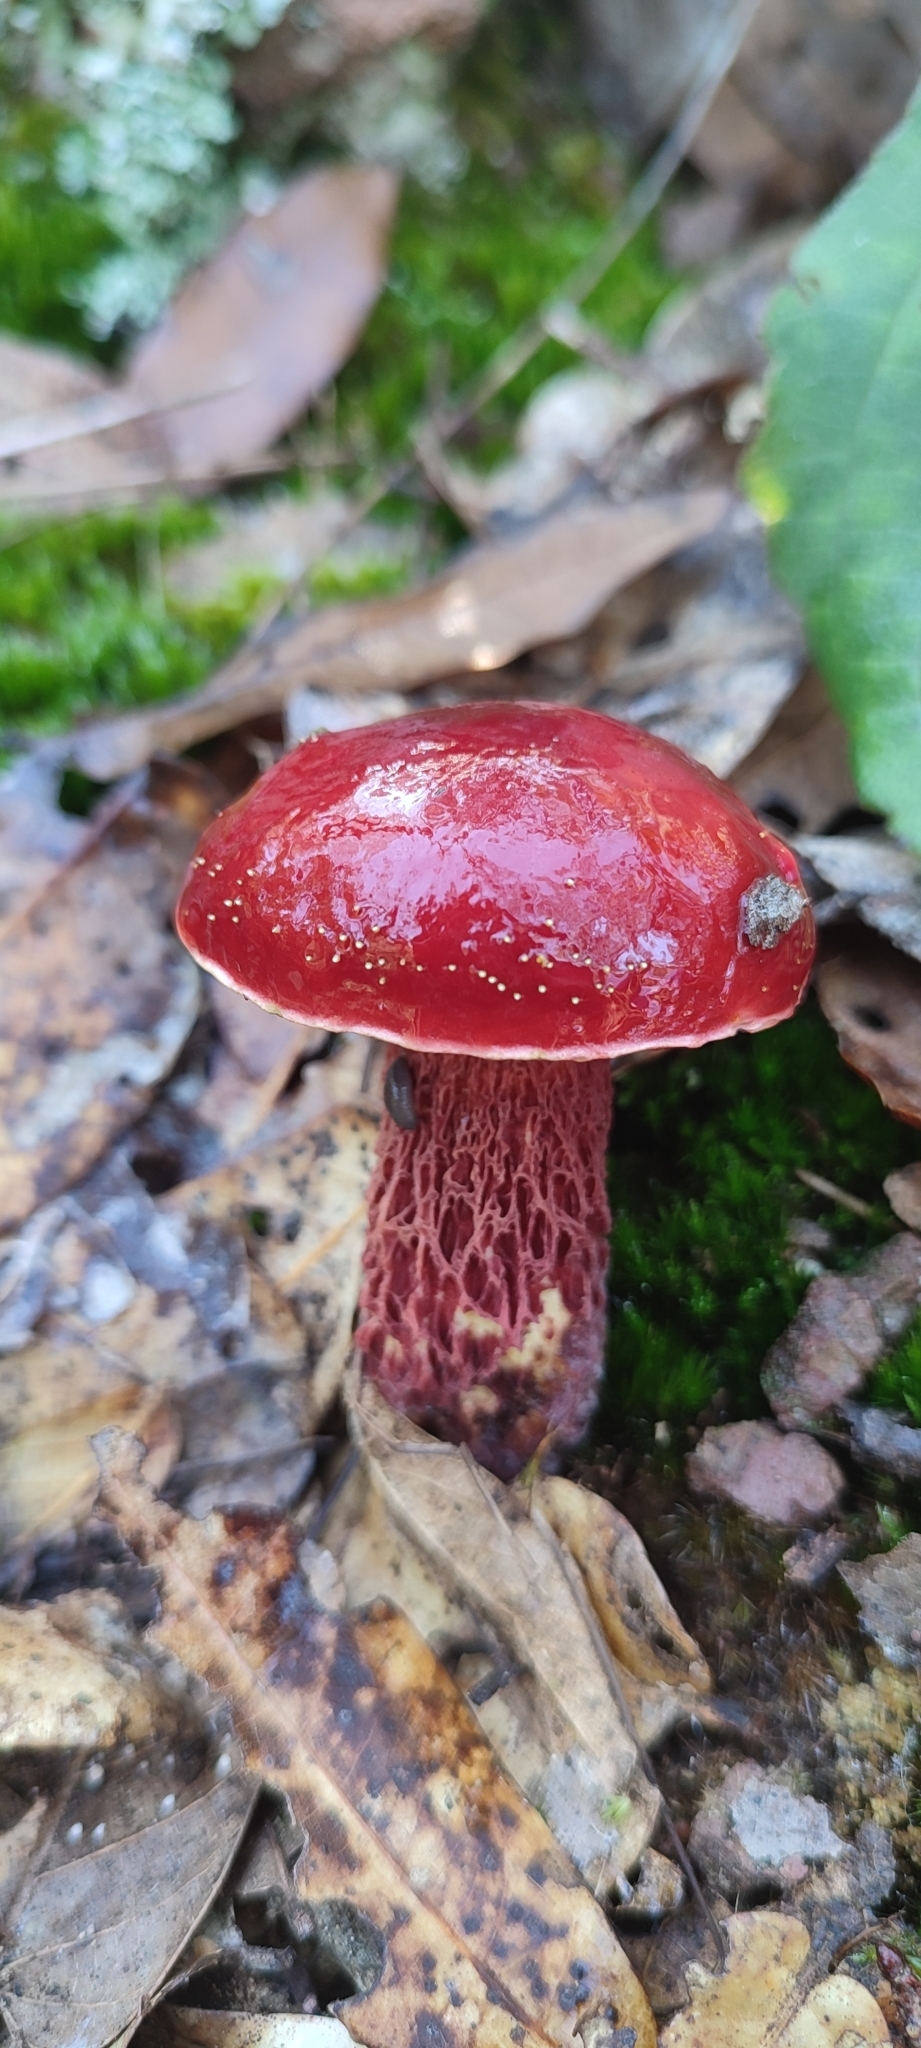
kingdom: Fungi
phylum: Basidiomycota
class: Agaricomycetes
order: Boletales
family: Boletaceae
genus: Butyriboletus
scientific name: Butyriboletus frostii
